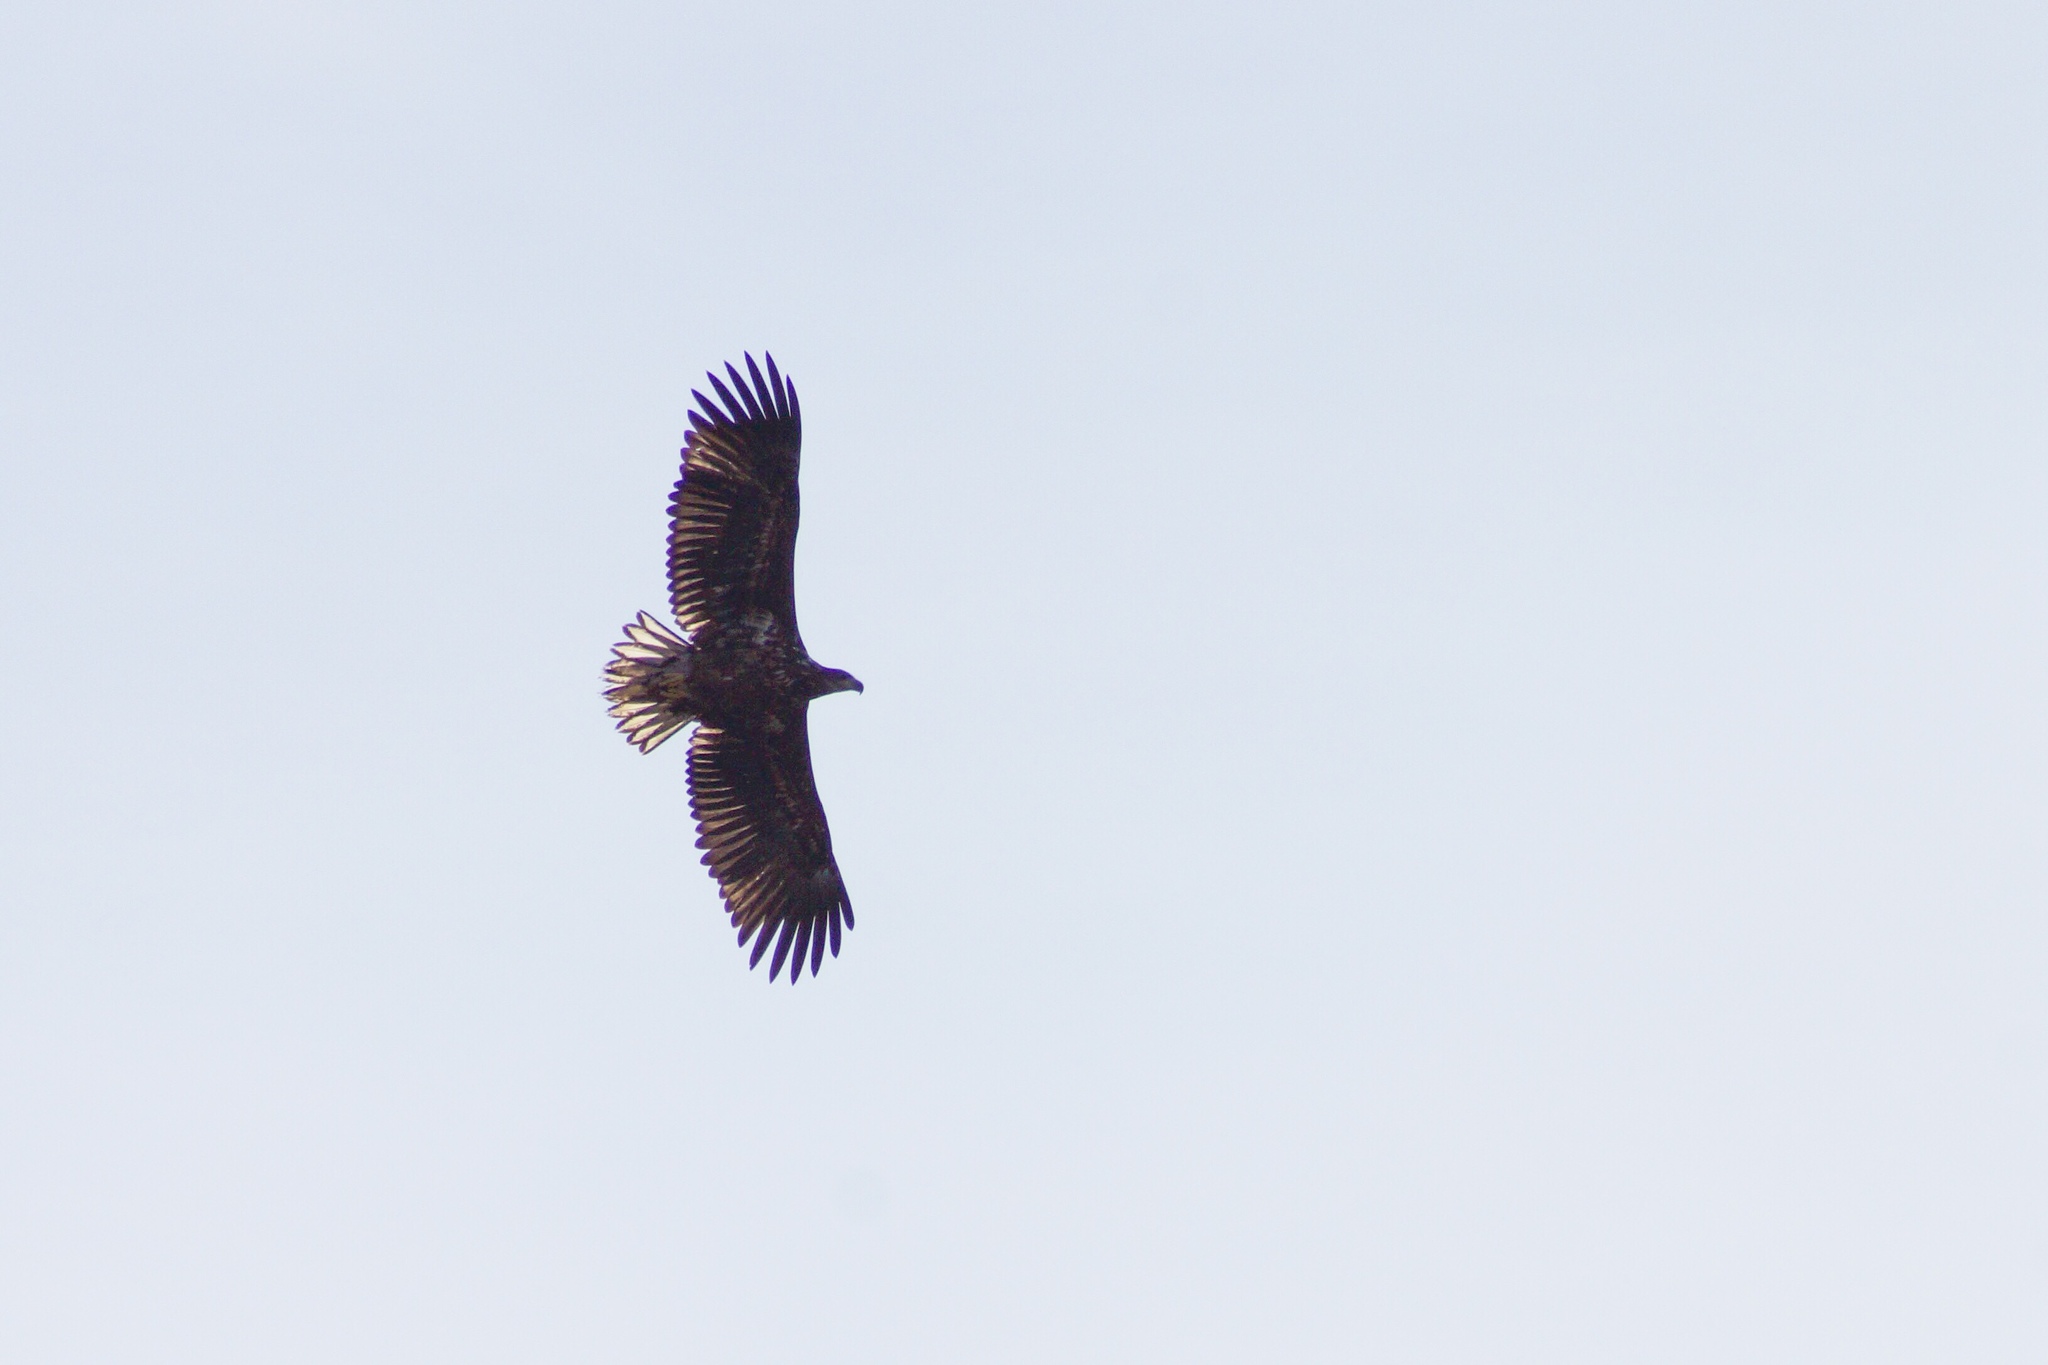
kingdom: Animalia
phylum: Chordata
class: Aves
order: Accipitriformes
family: Accipitridae
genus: Haliaeetus
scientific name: Haliaeetus albicilla
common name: White-tailed eagle
